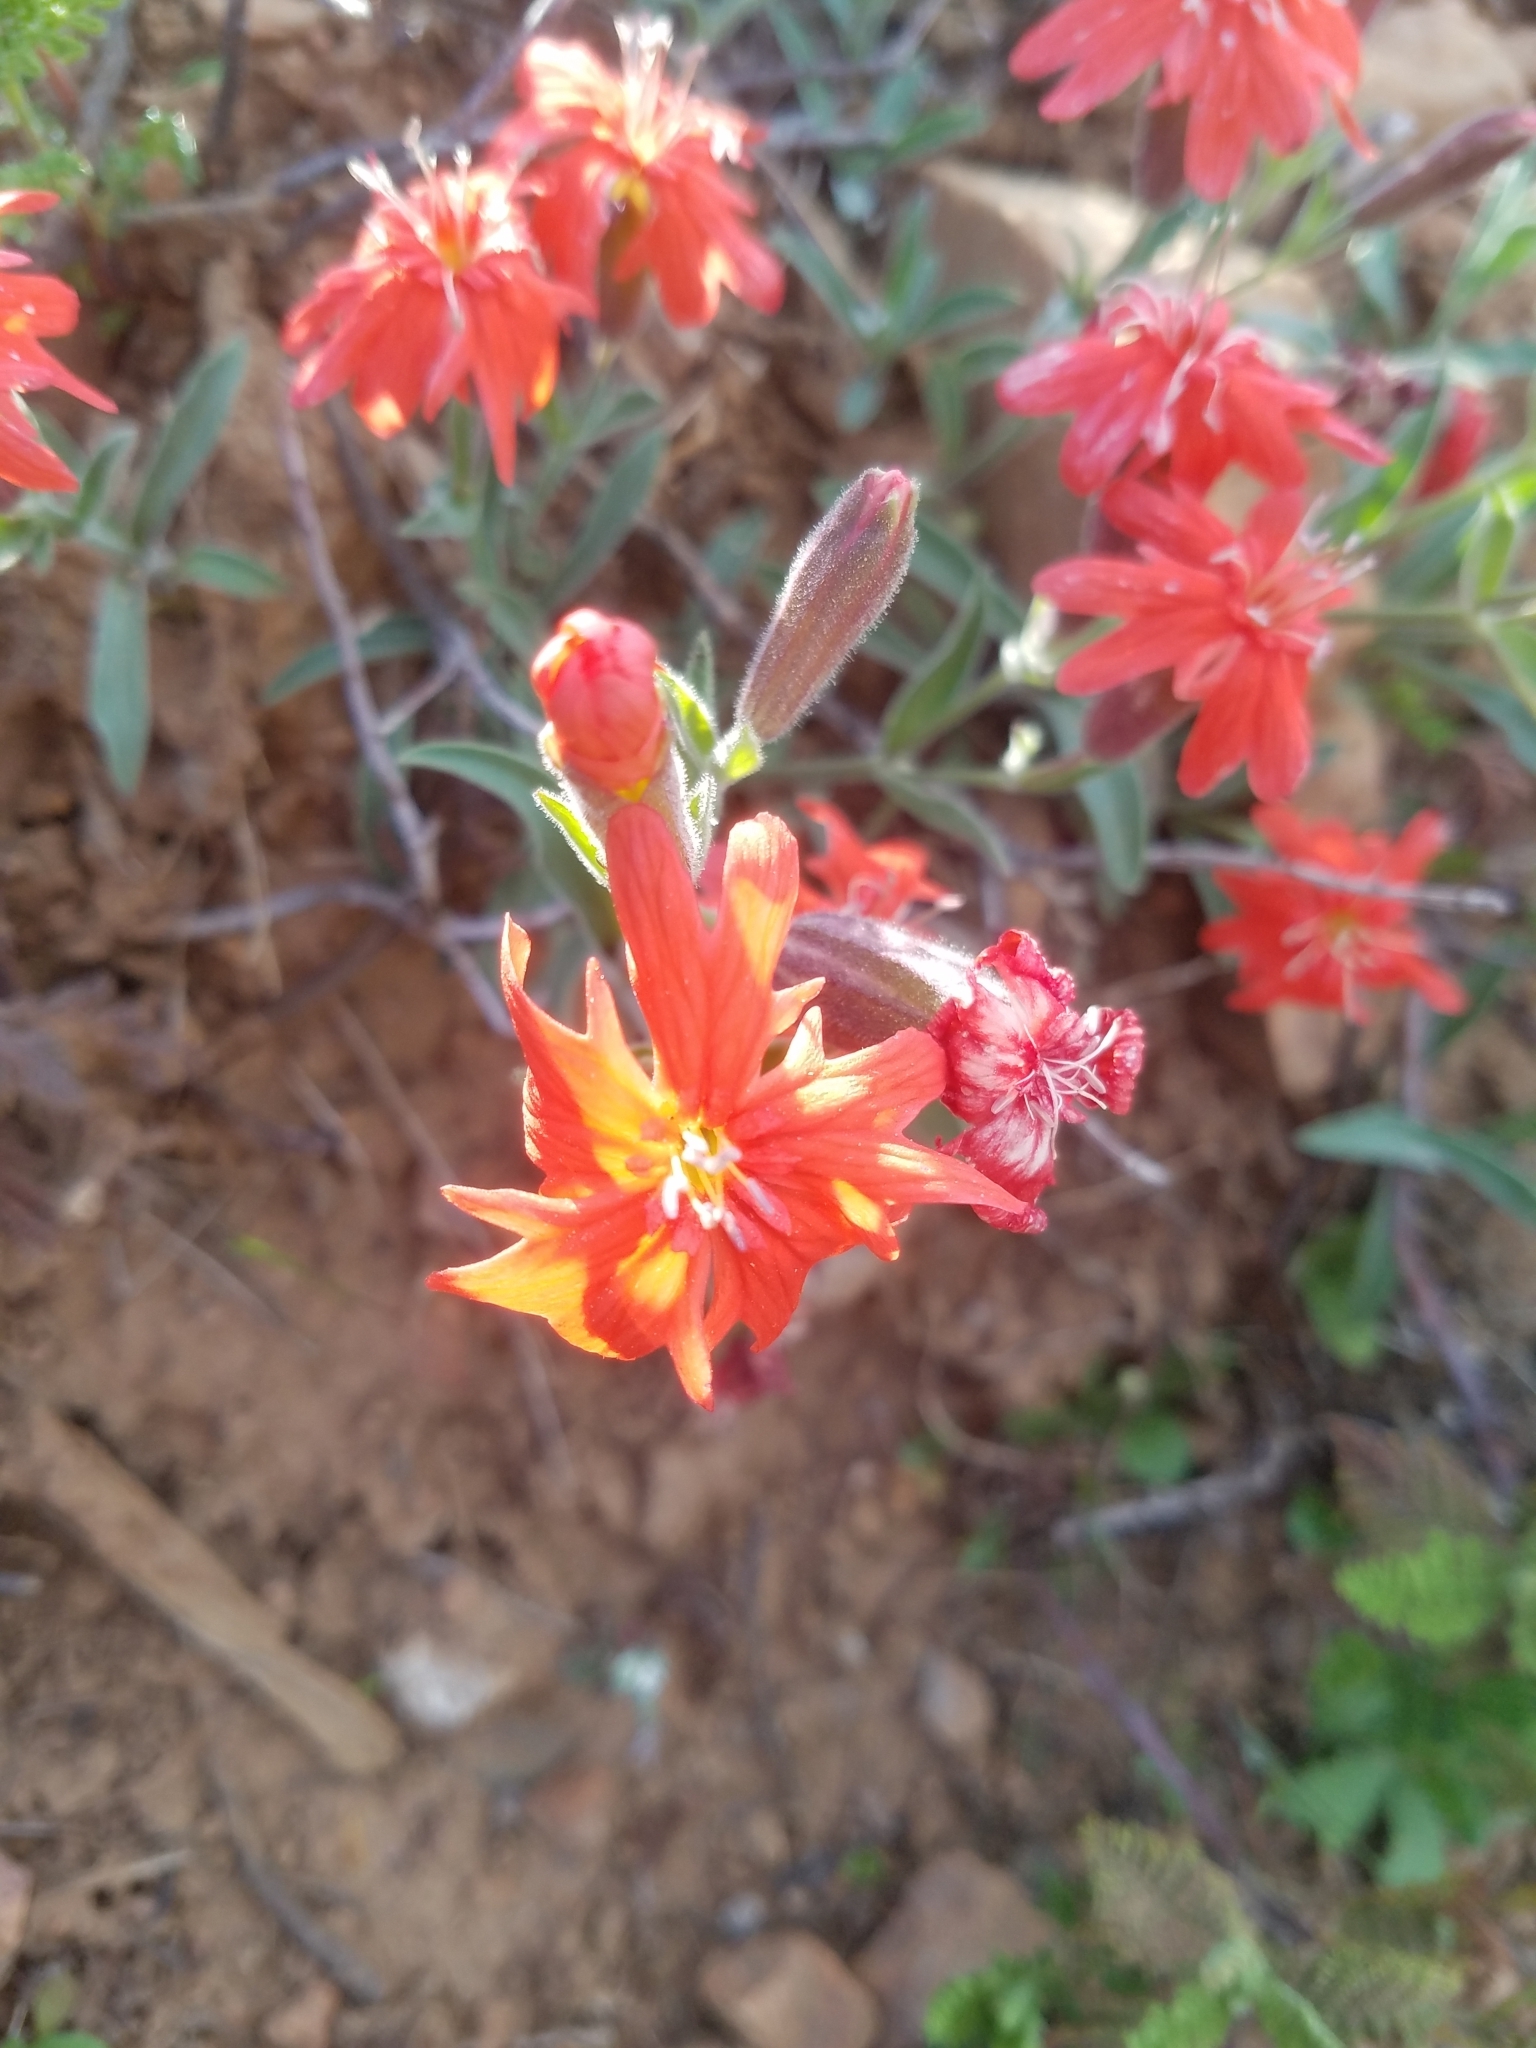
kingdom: Plantae
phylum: Tracheophyta
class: Magnoliopsida
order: Caryophyllales
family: Caryophyllaceae
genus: Silene
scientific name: Silene laciniata
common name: Indian-pink
